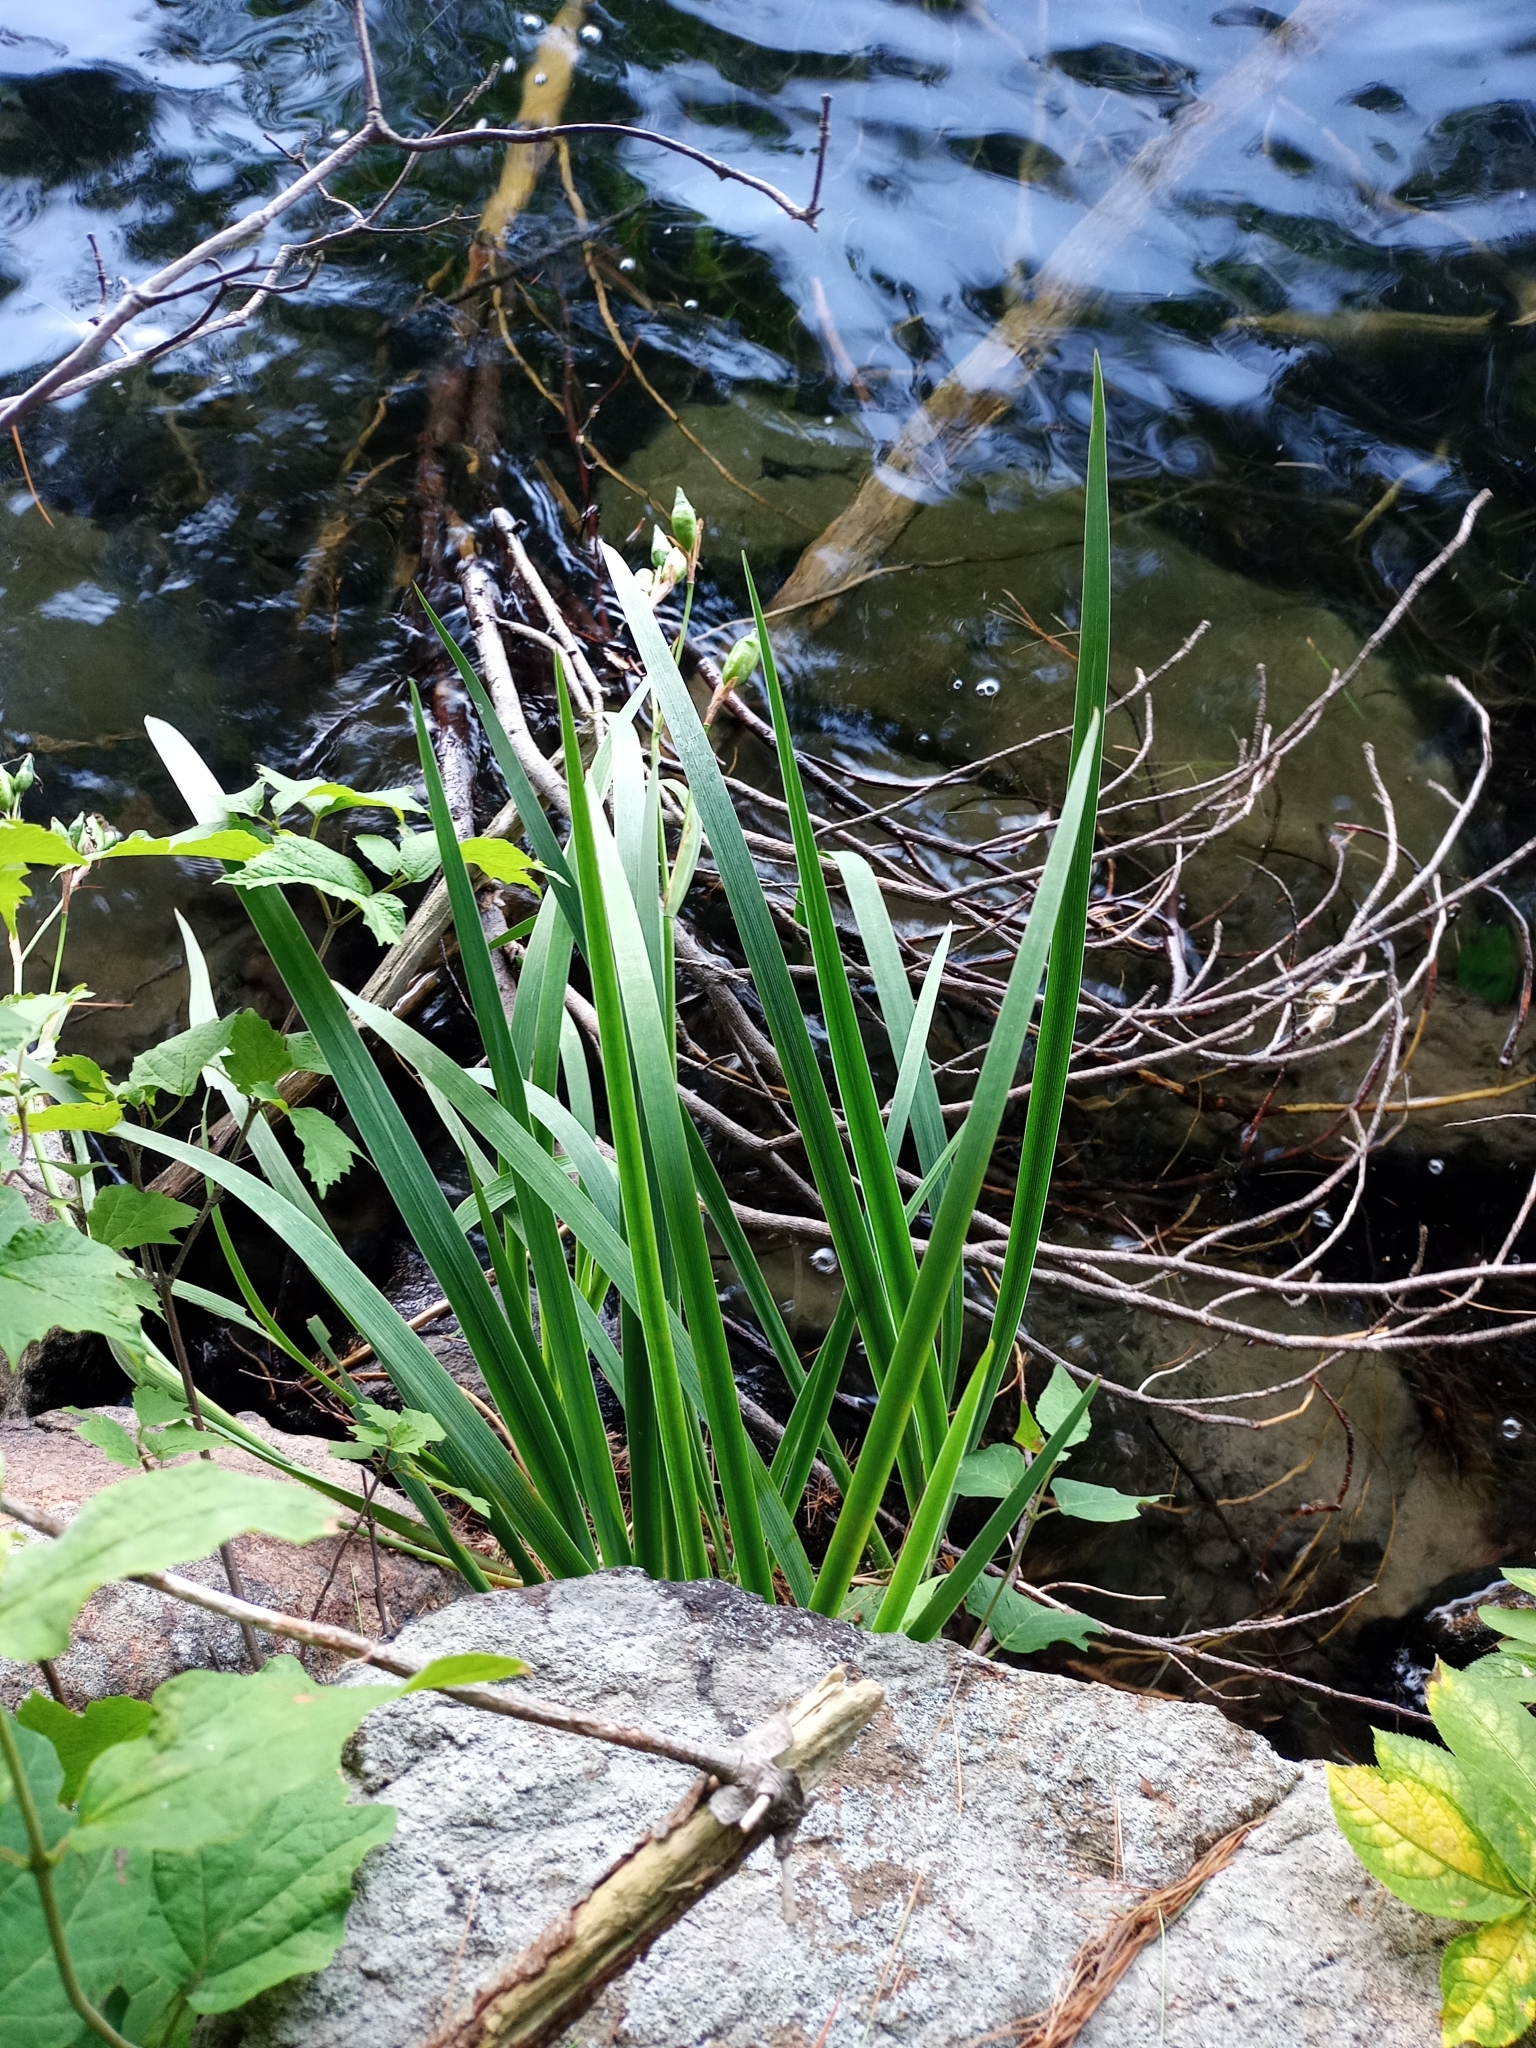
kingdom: Plantae
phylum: Tracheophyta
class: Liliopsida
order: Asparagales
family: Iridaceae
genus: Iris
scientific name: Iris versicolor
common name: Purple iris
